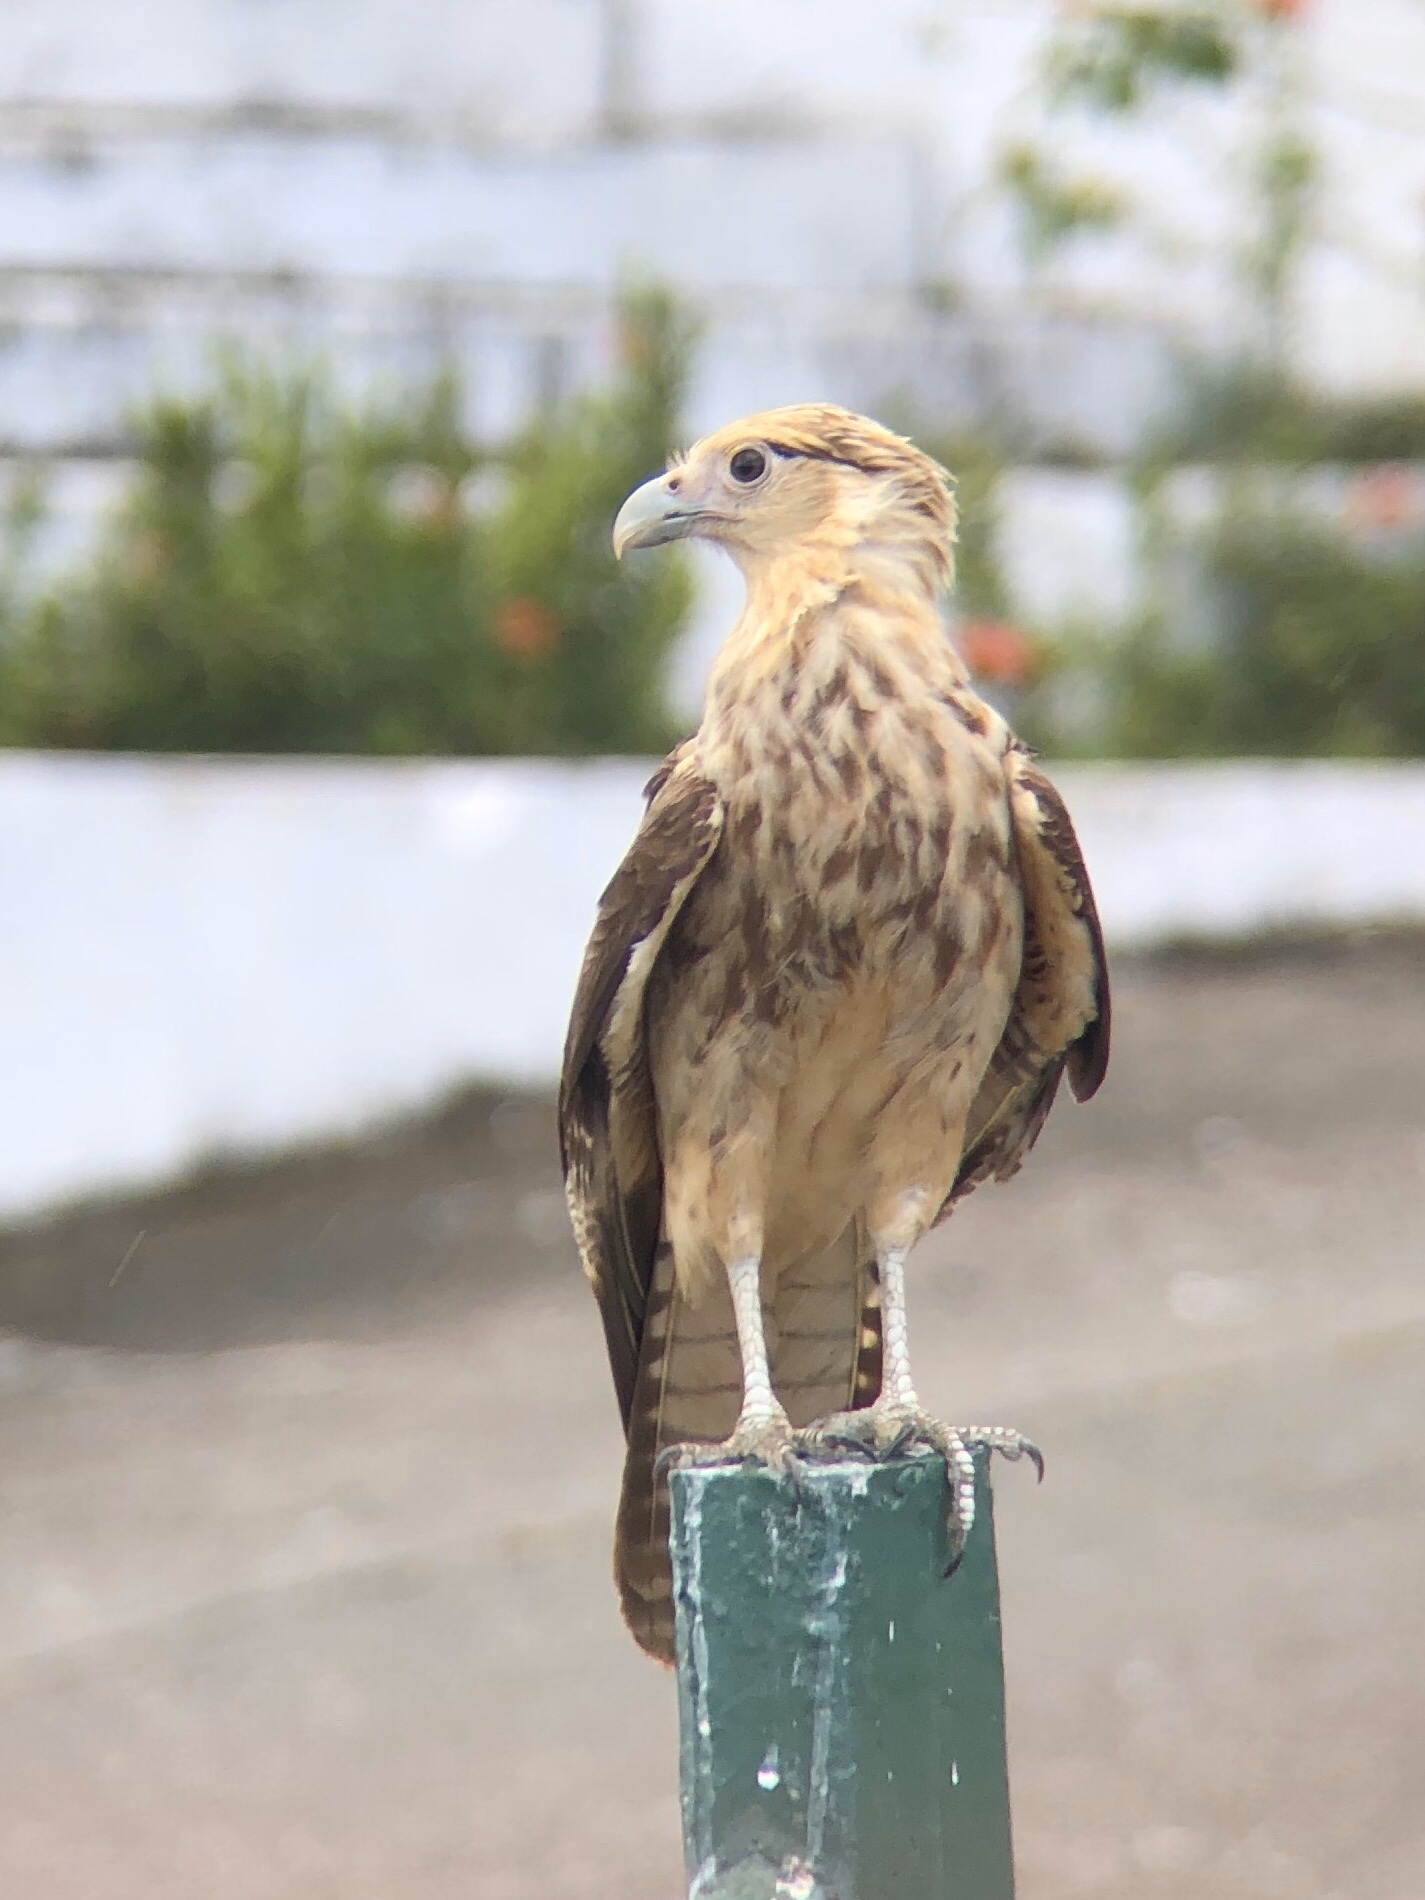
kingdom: Animalia
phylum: Chordata
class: Aves
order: Falconiformes
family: Falconidae
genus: Daptrius
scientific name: Daptrius
